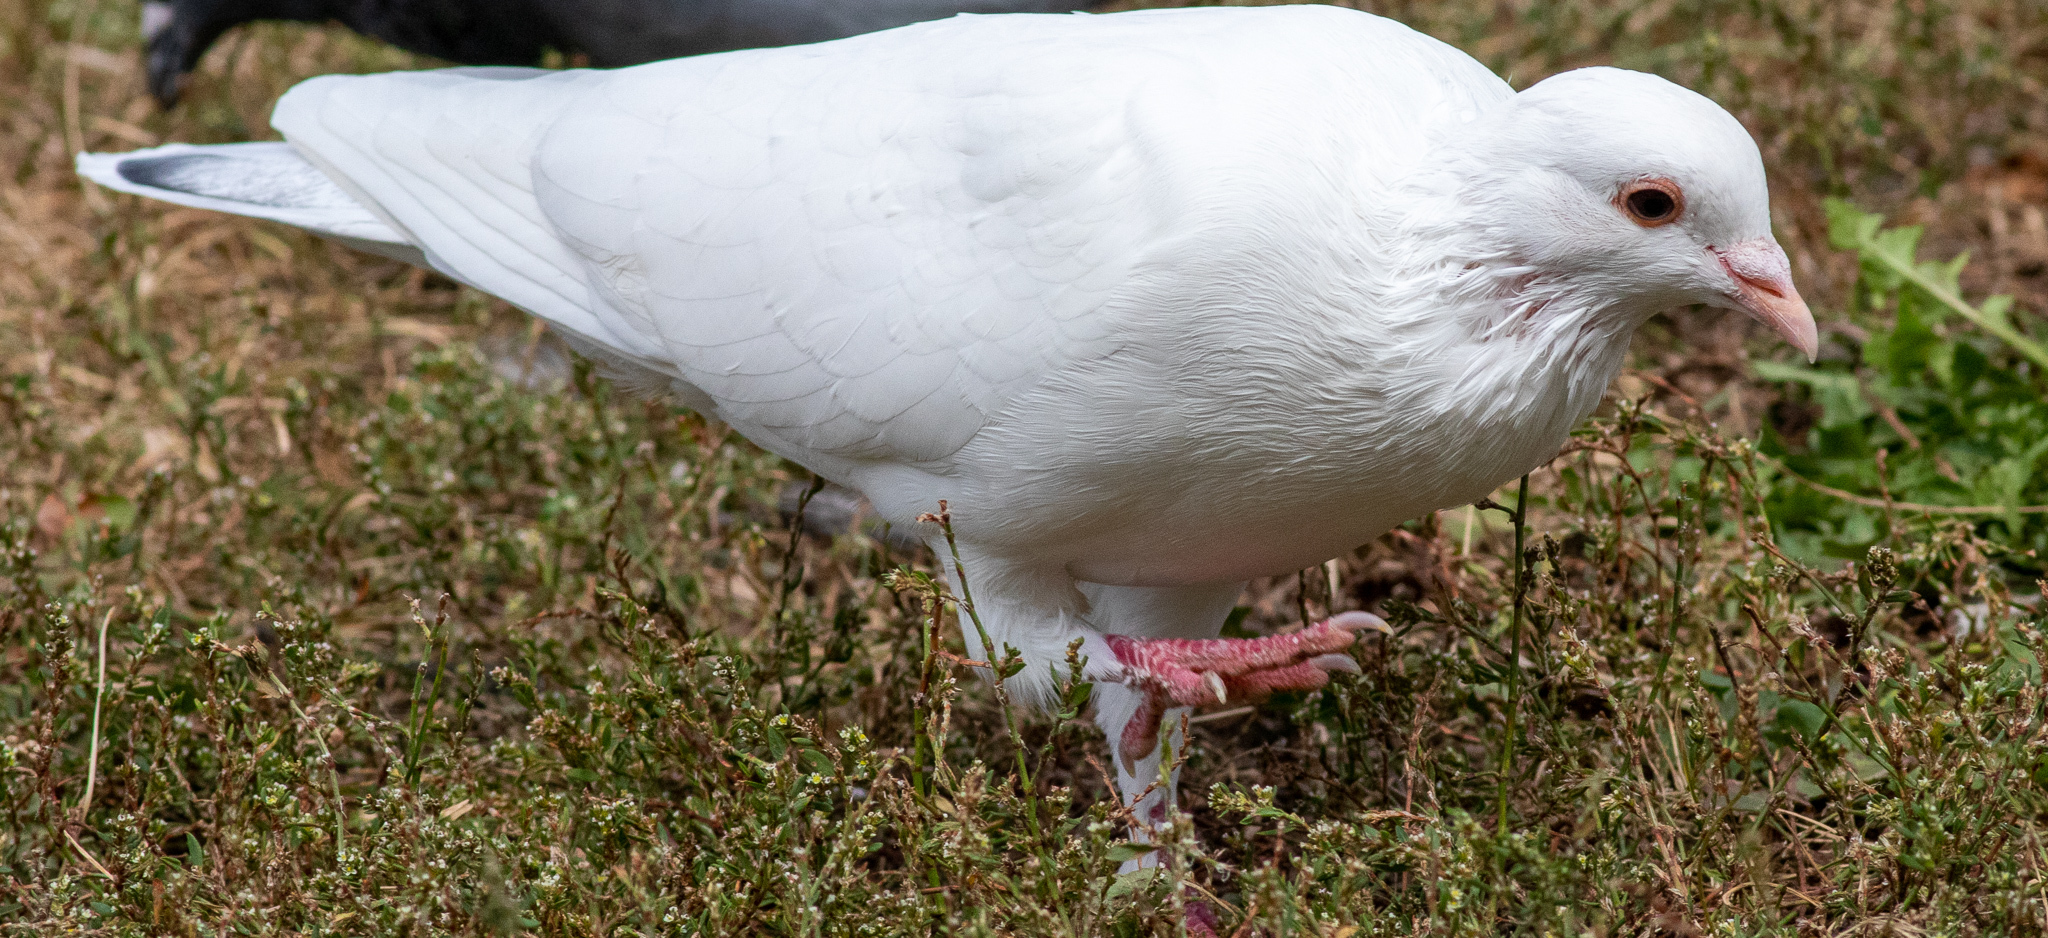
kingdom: Animalia
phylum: Chordata
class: Aves
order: Columbiformes
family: Columbidae
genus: Columba
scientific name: Columba livia
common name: Rock pigeon
